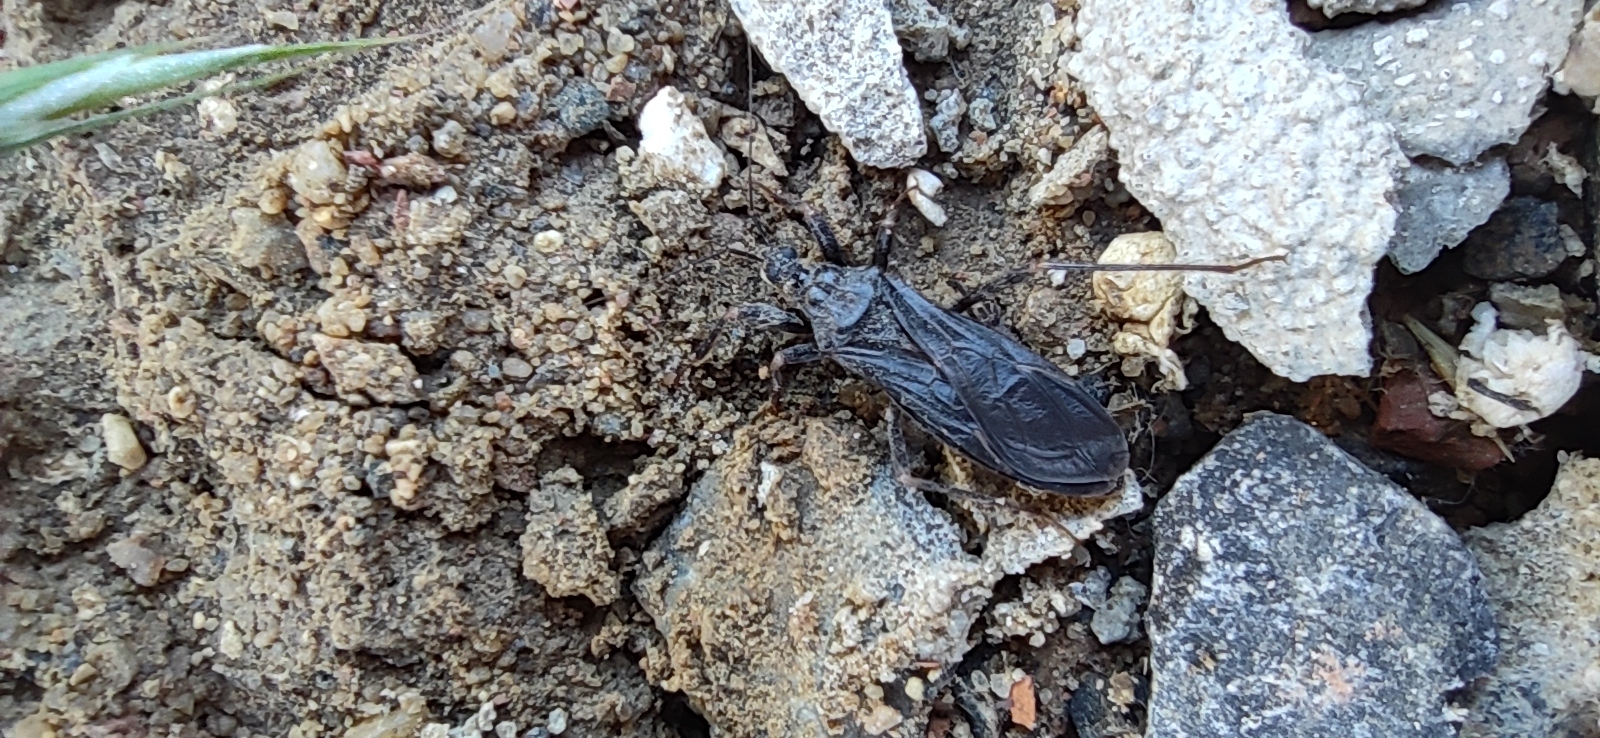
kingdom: Animalia
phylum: Arthropoda
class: Insecta
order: Hemiptera
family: Reduviidae
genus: Reduvius
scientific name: Reduvius personatus
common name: Masked hunter
